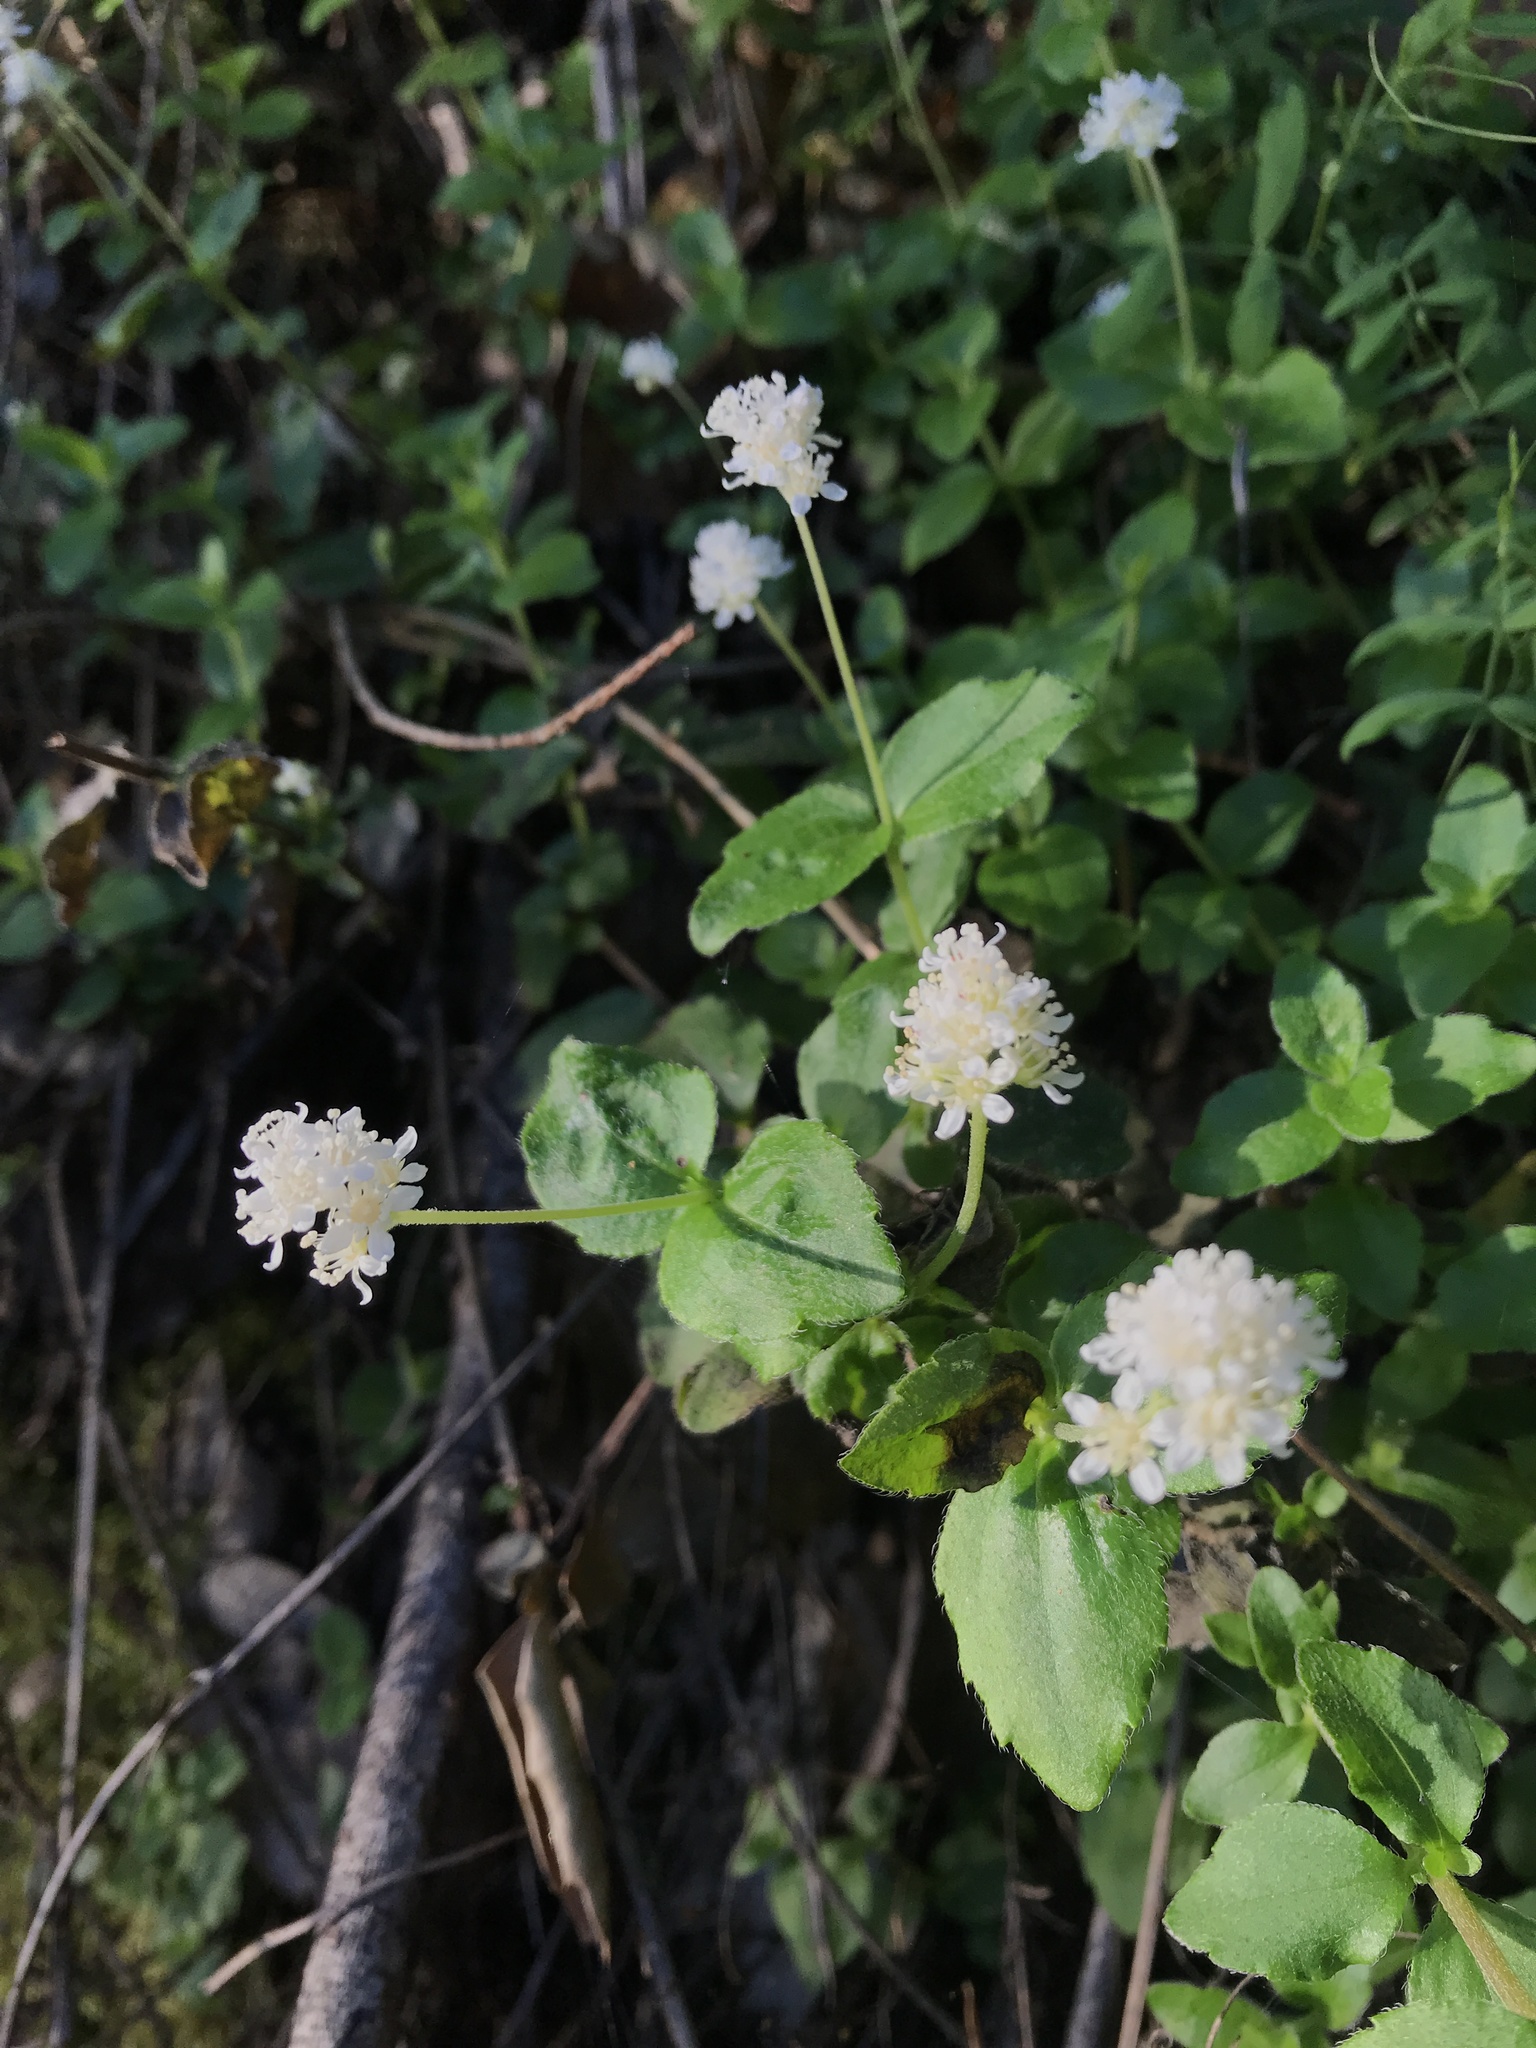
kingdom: Plantae
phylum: Tracheophyta
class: Magnoliopsida
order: Cornales
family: Hydrangeaceae
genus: Whipplea
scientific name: Whipplea modesta
